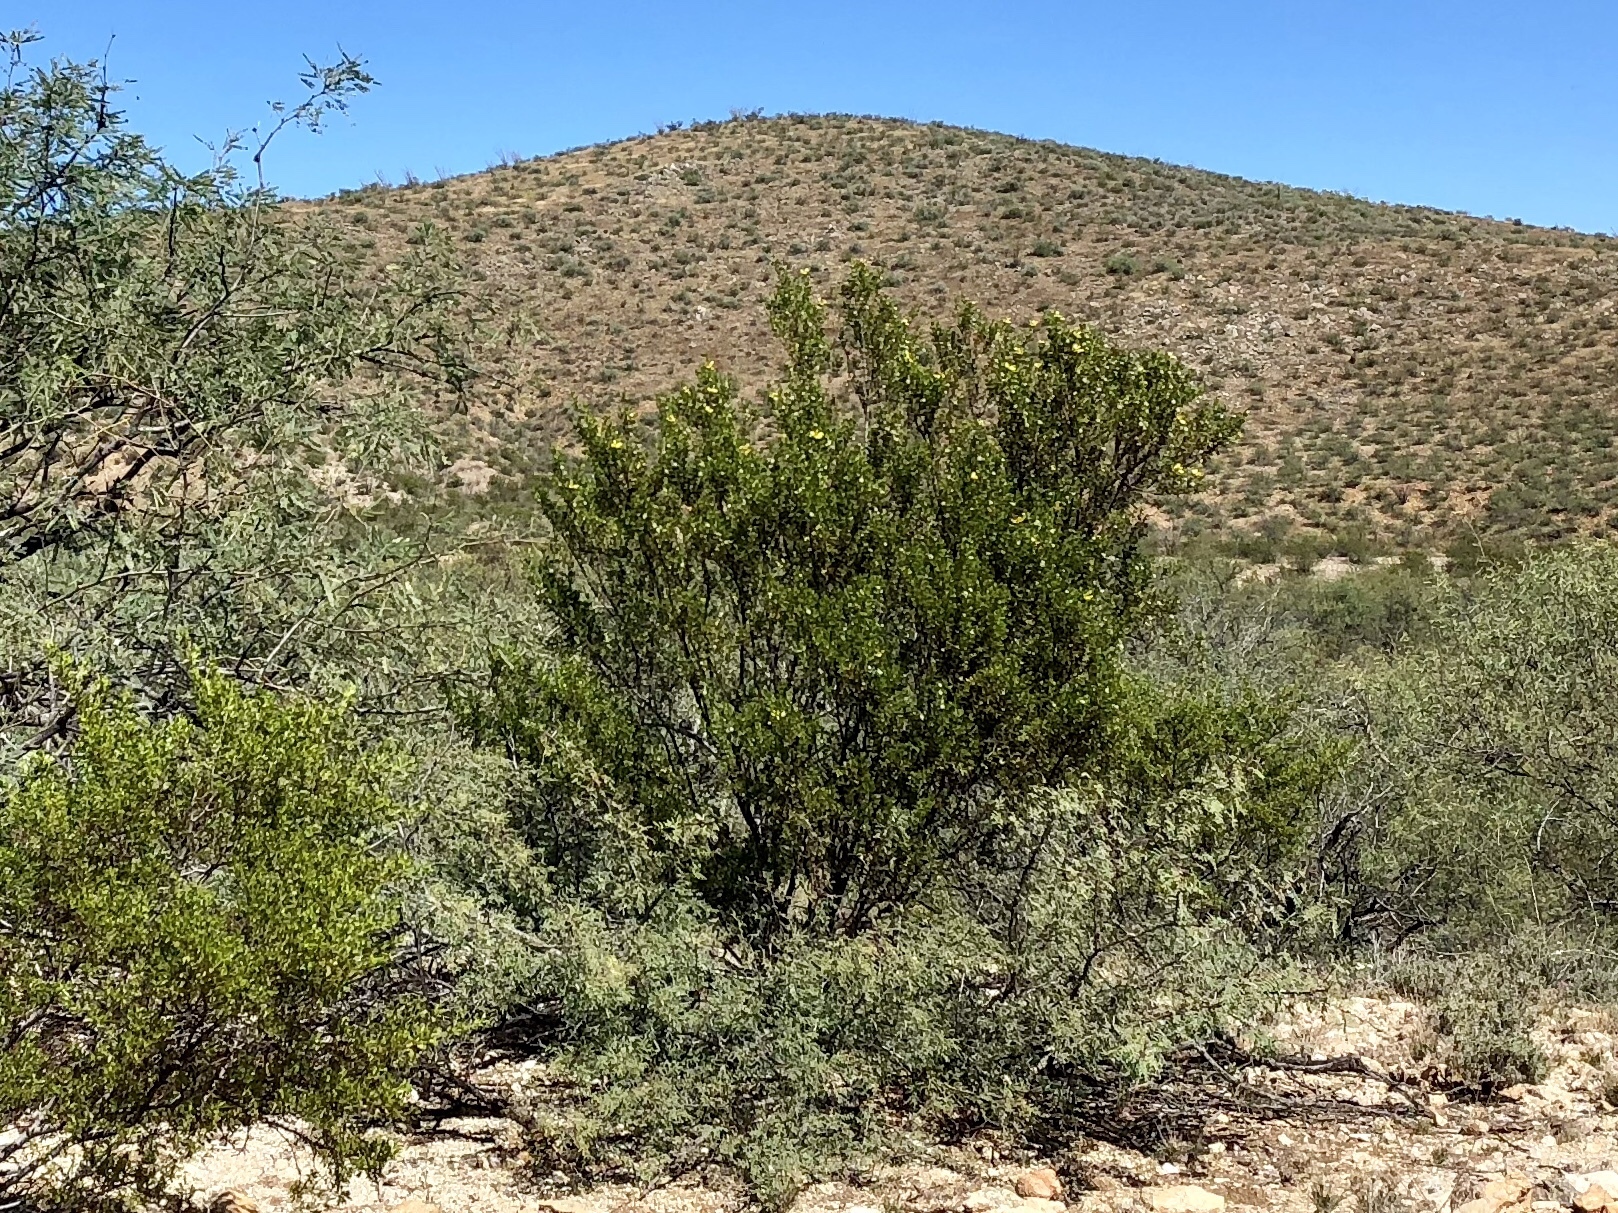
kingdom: Plantae
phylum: Tracheophyta
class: Magnoliopsida
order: Zygophyllales
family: Zygophyllaceae
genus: Larrea
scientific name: Larrea tridentata
